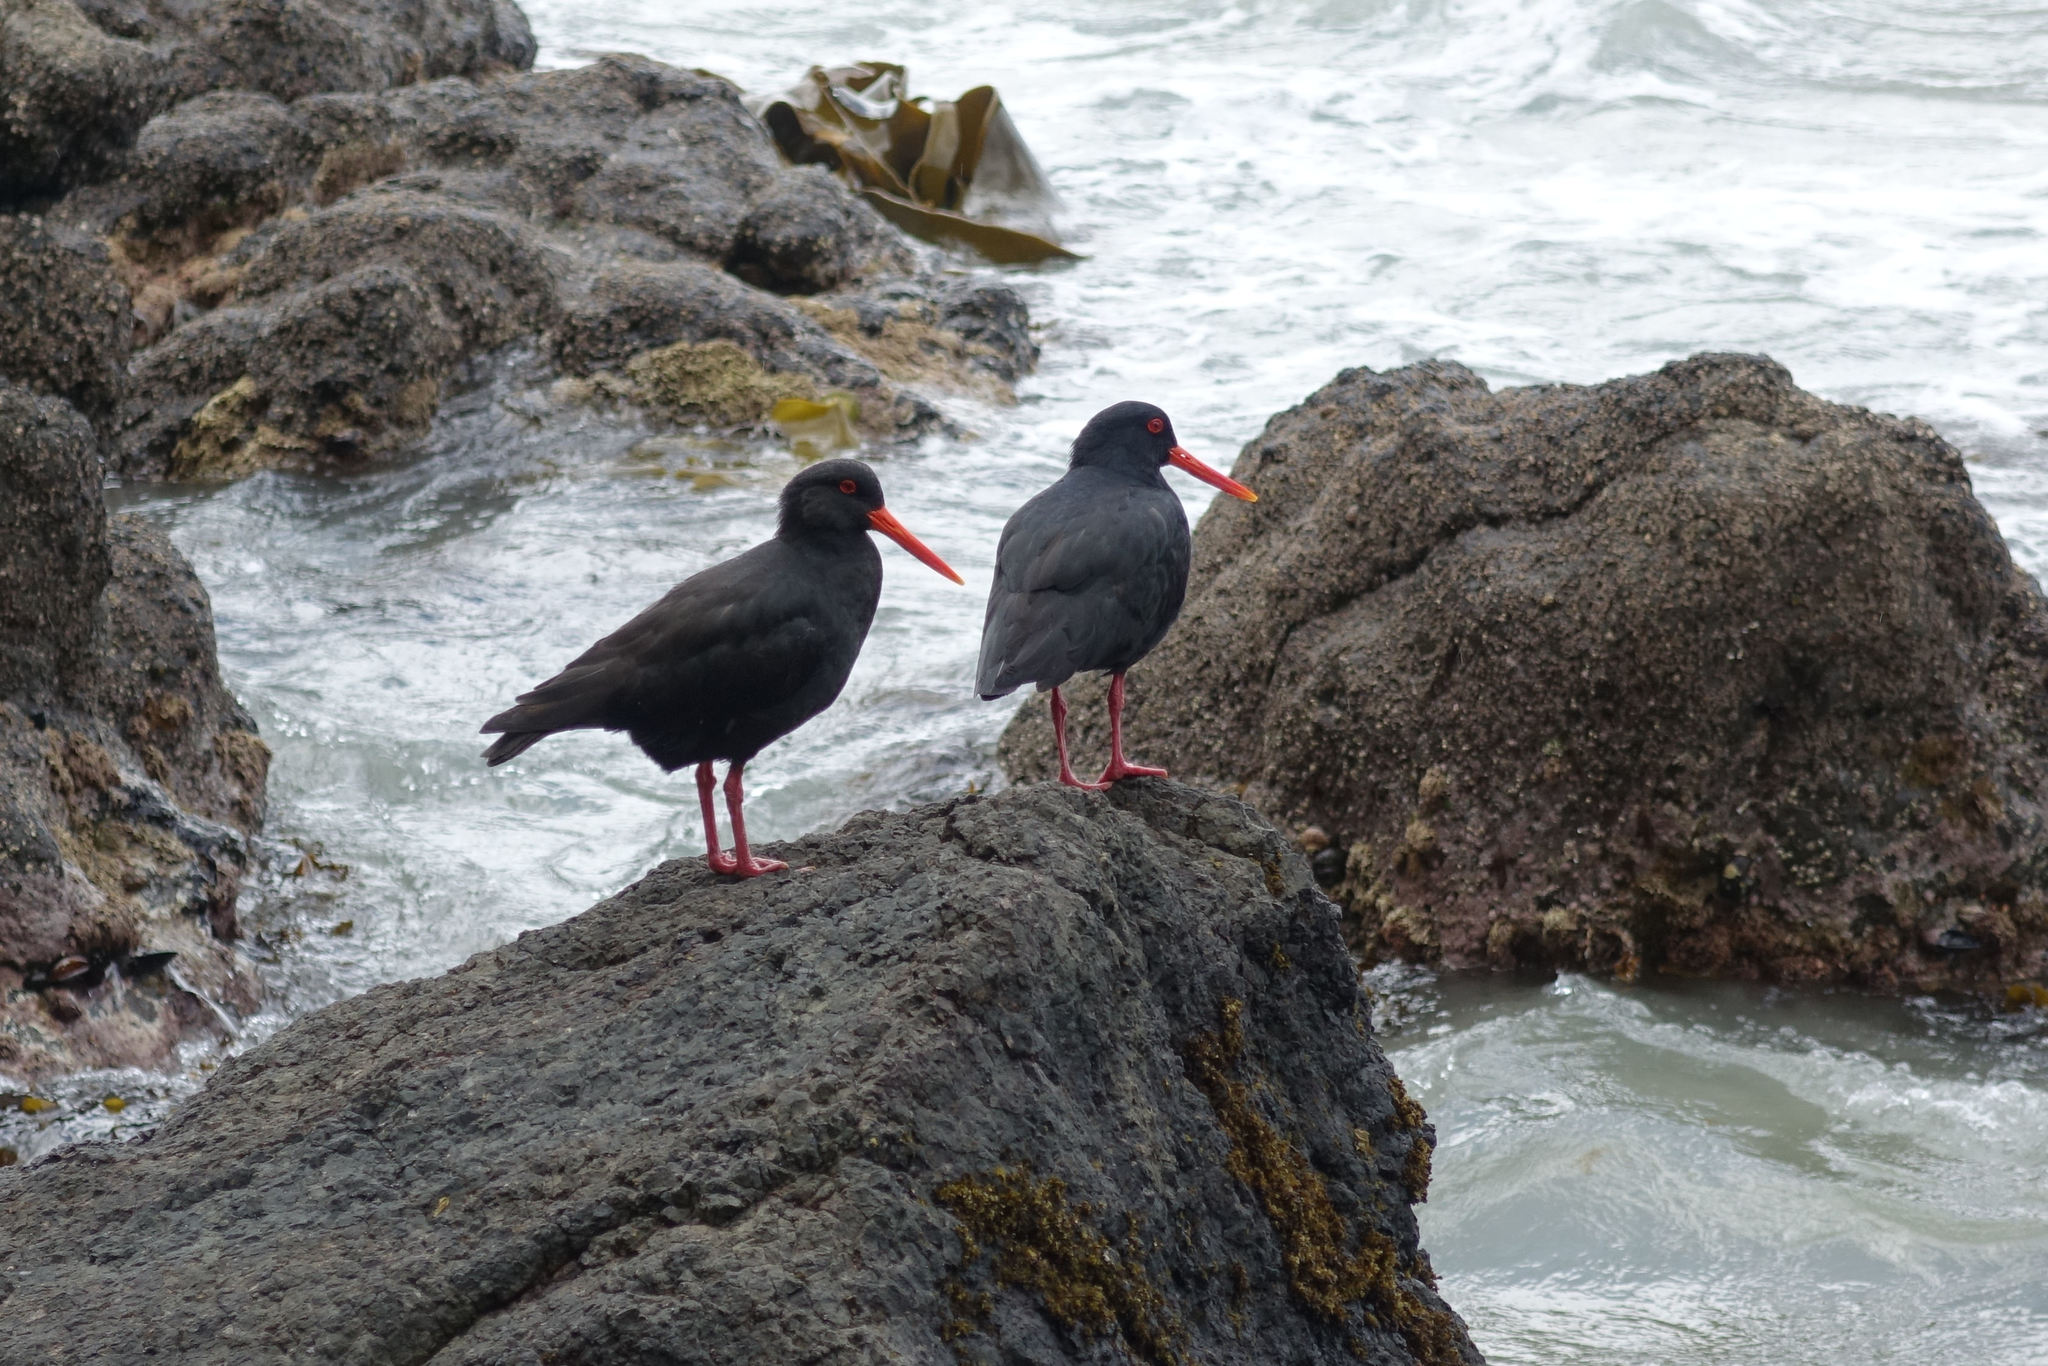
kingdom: Animalia
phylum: Chordata
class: Aves
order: Charadriiformes
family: Haematopodidae
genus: Haematopus
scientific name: Haematopus unicolor
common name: Variable oystercatcher
